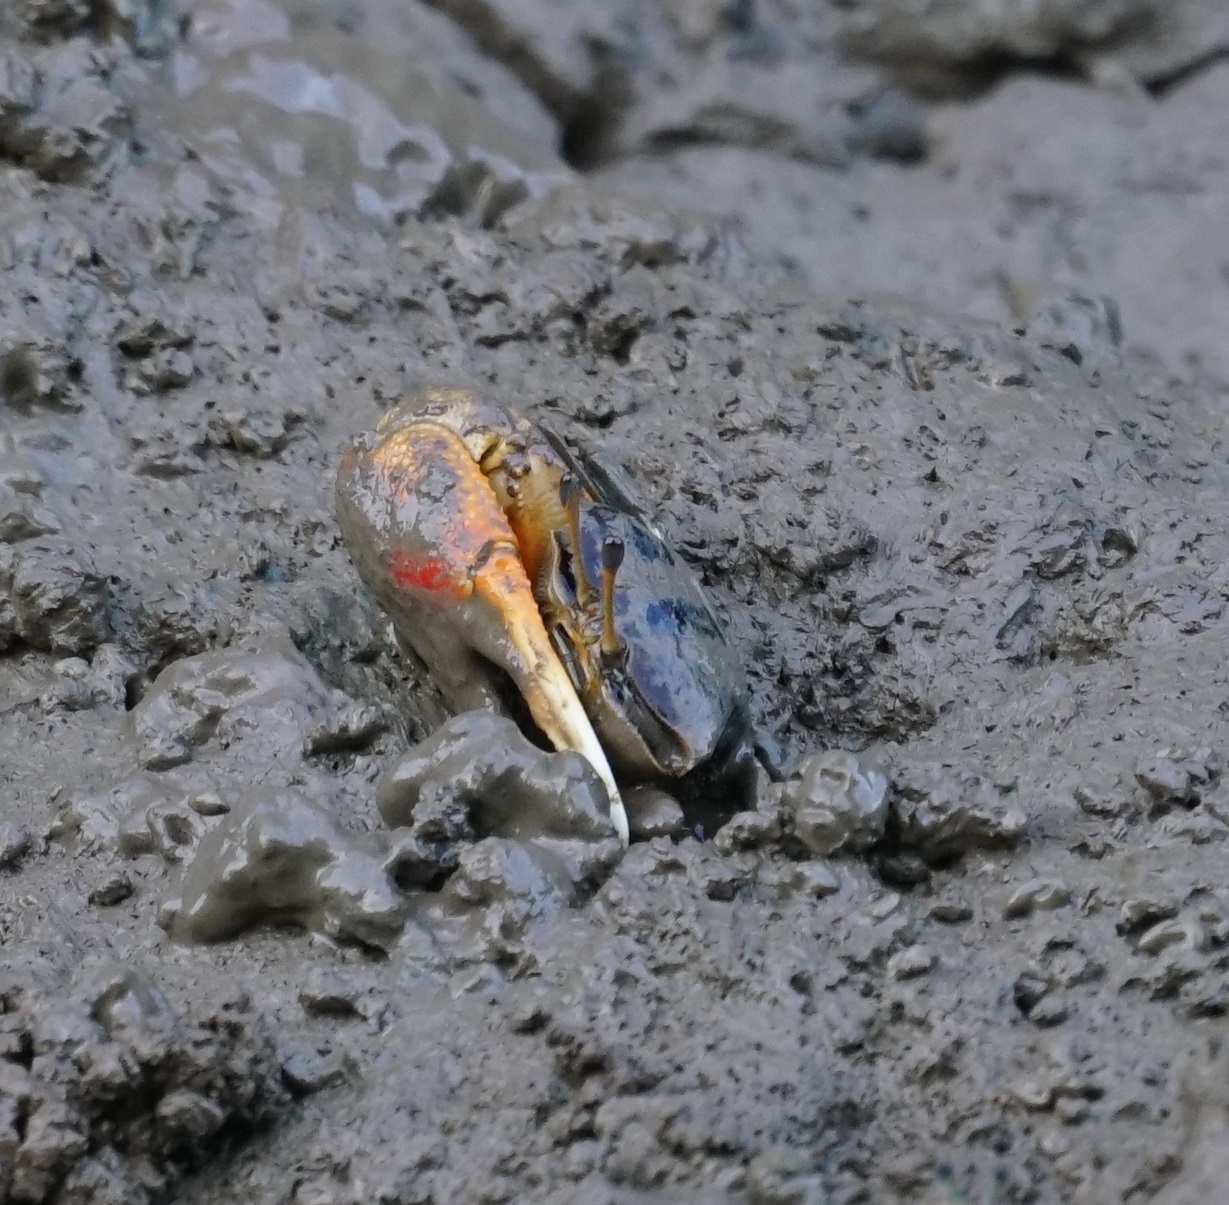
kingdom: Animalia
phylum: Arthropoda
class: Malacostraca
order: Decapoda
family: Ocypodidae
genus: Tubuca
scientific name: Tubuca dussumieri
